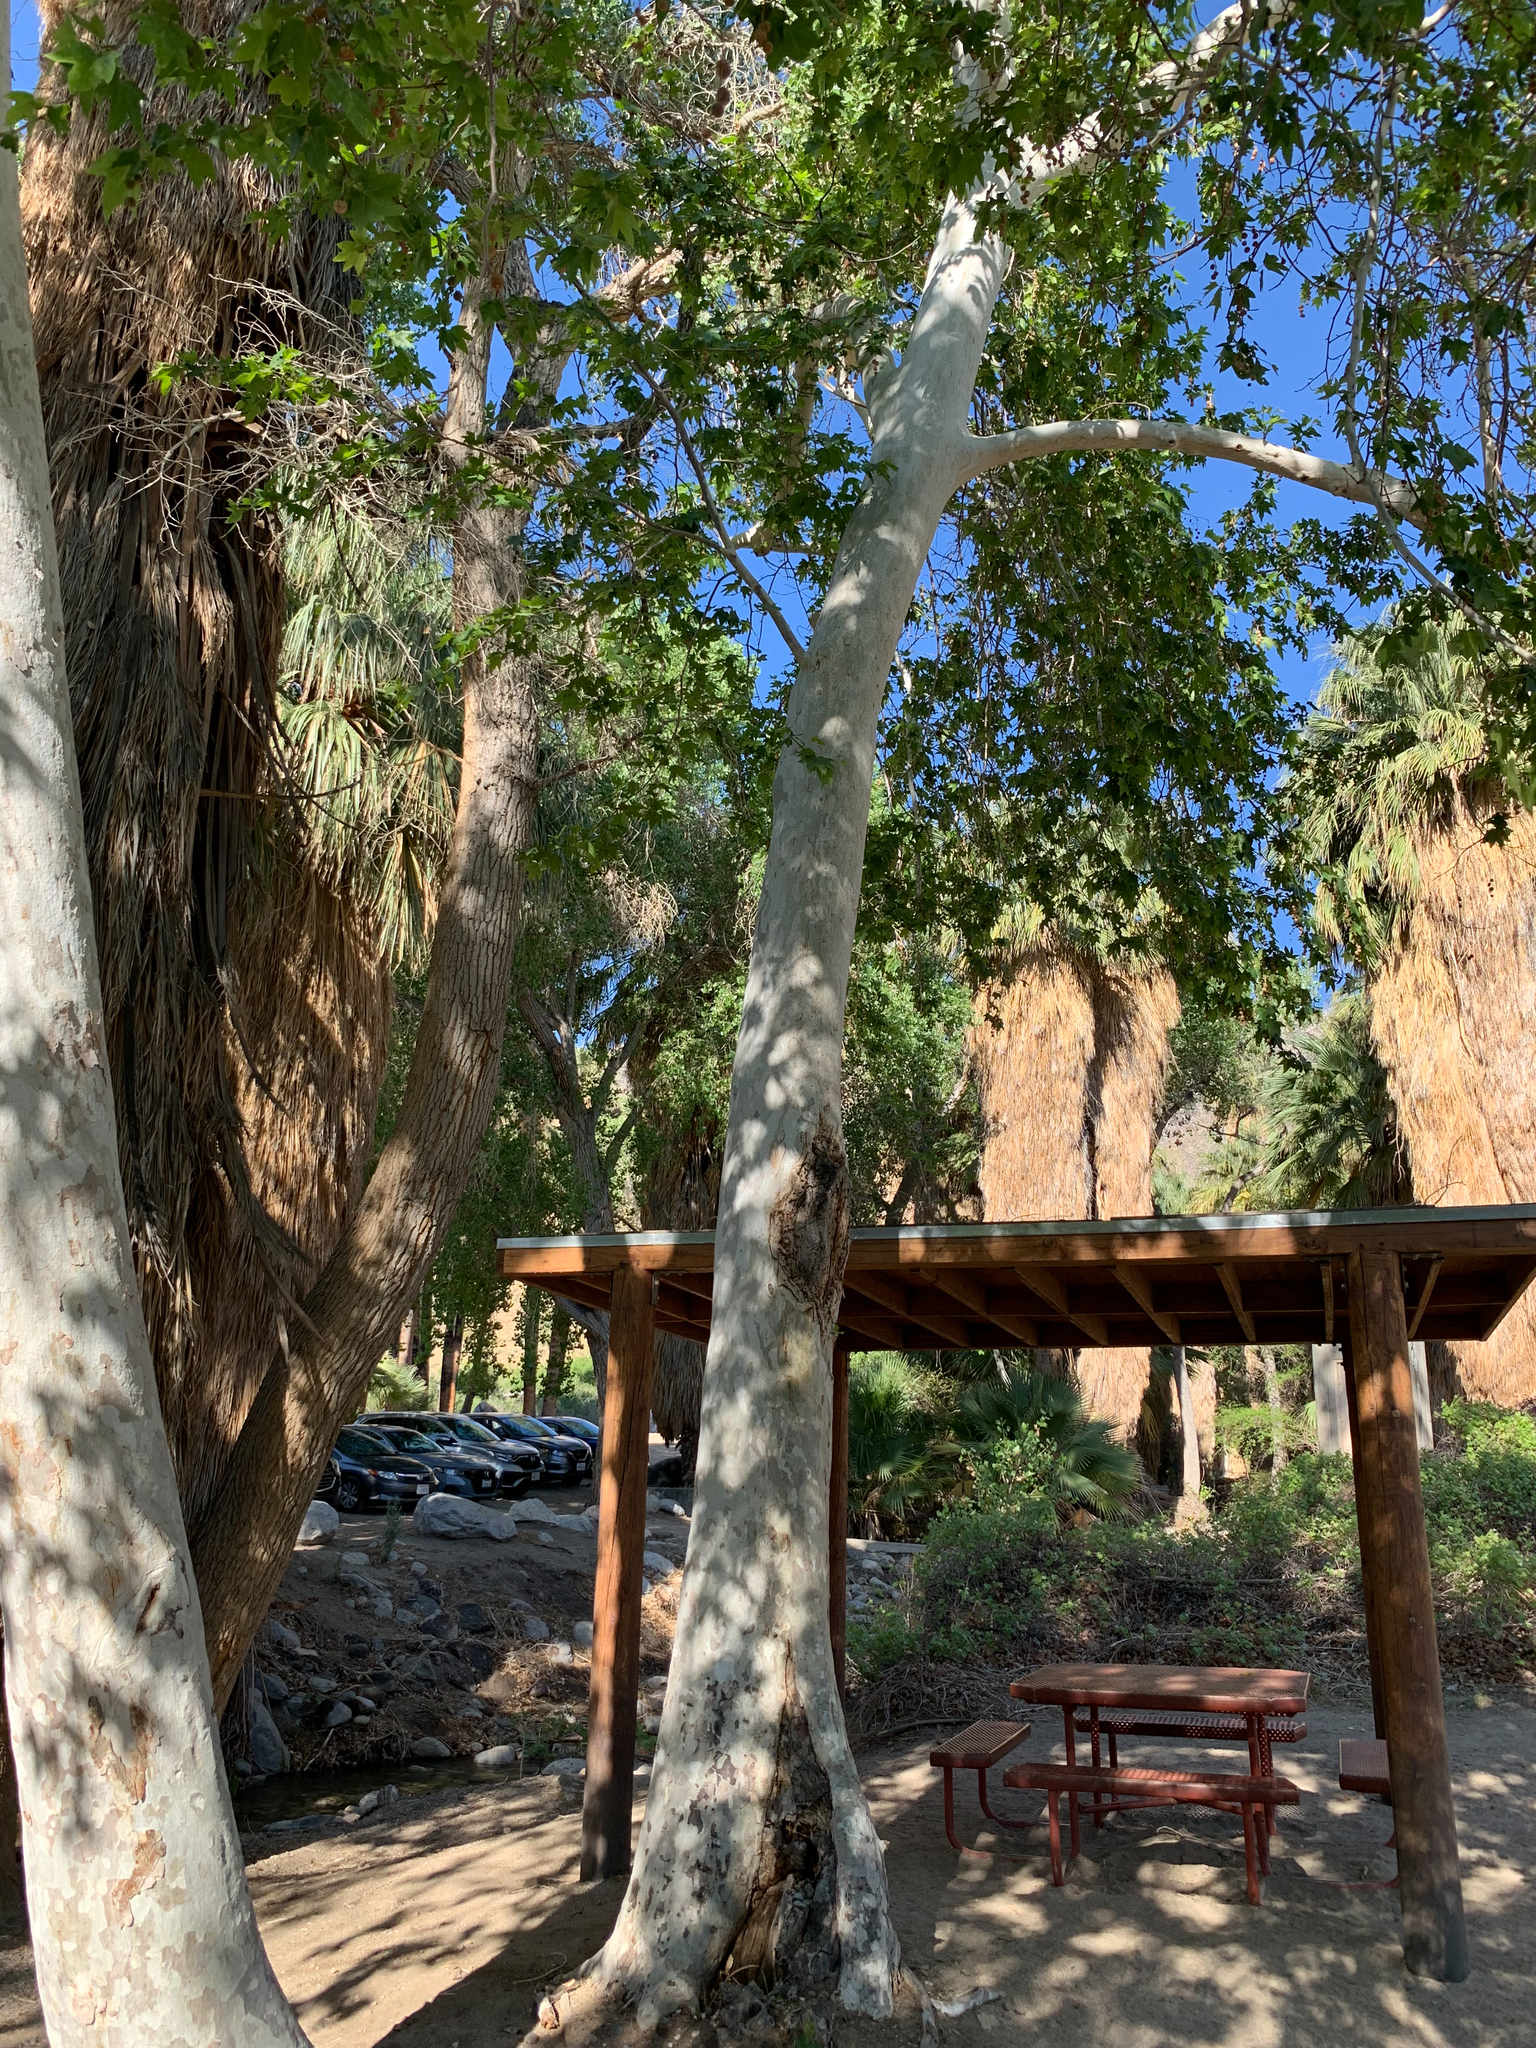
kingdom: Plantae
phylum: Tracheophyta
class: Magnoliopsida
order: Proteales
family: Platanaceae
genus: Platanus
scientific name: Platanus racemosa
